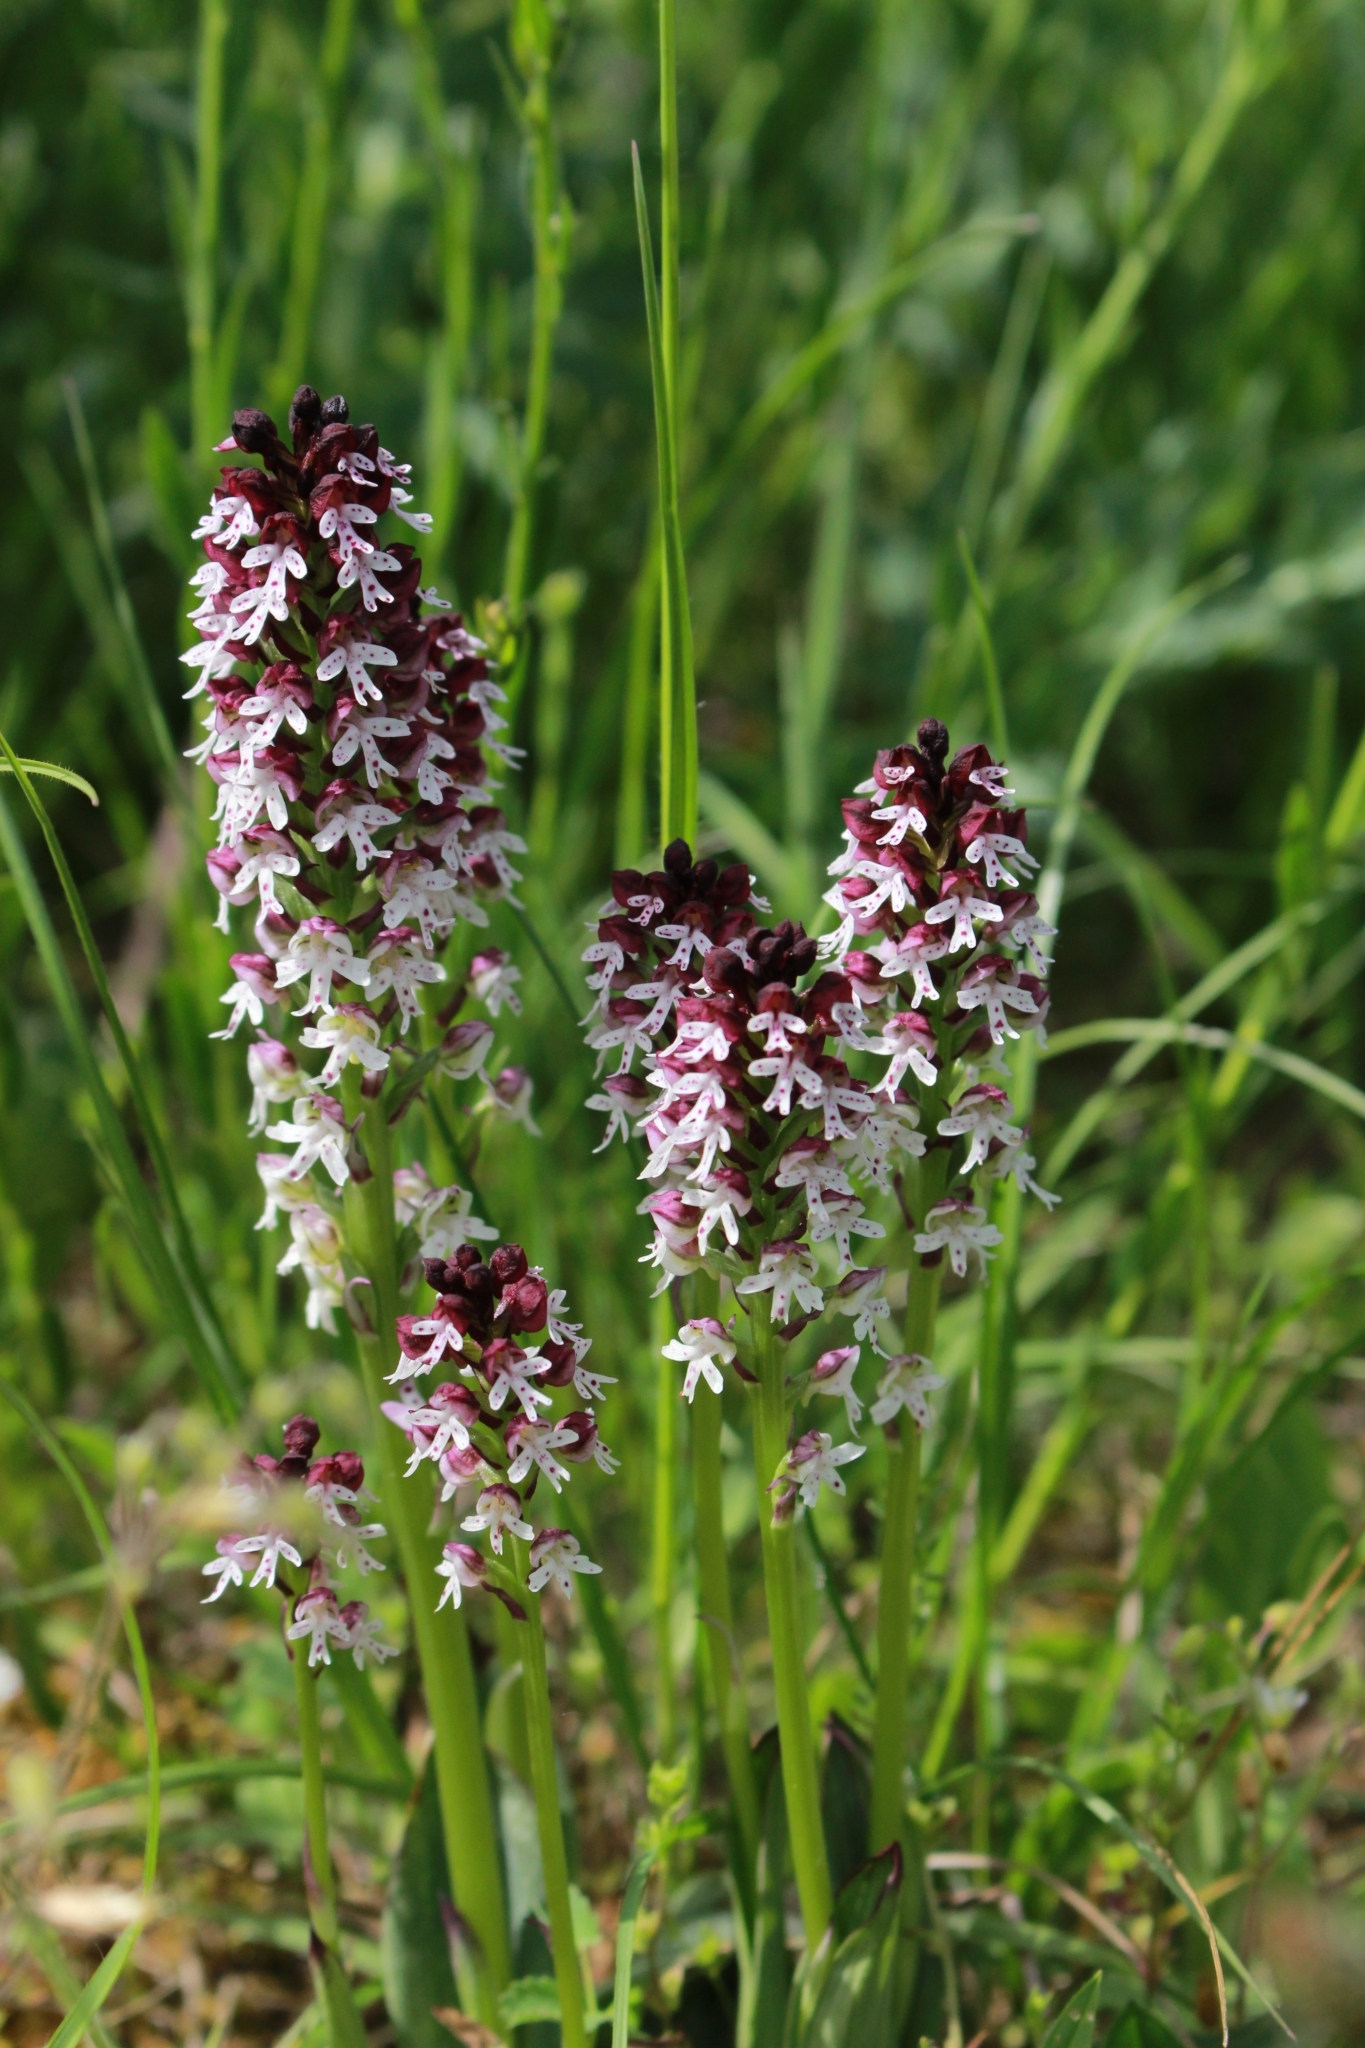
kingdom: Plantae
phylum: Tracheophyta
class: Liliopsida
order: Asparagales
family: Orchidaceae
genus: Neotinea
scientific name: Neotinea ustulata
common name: Burnt orchid
